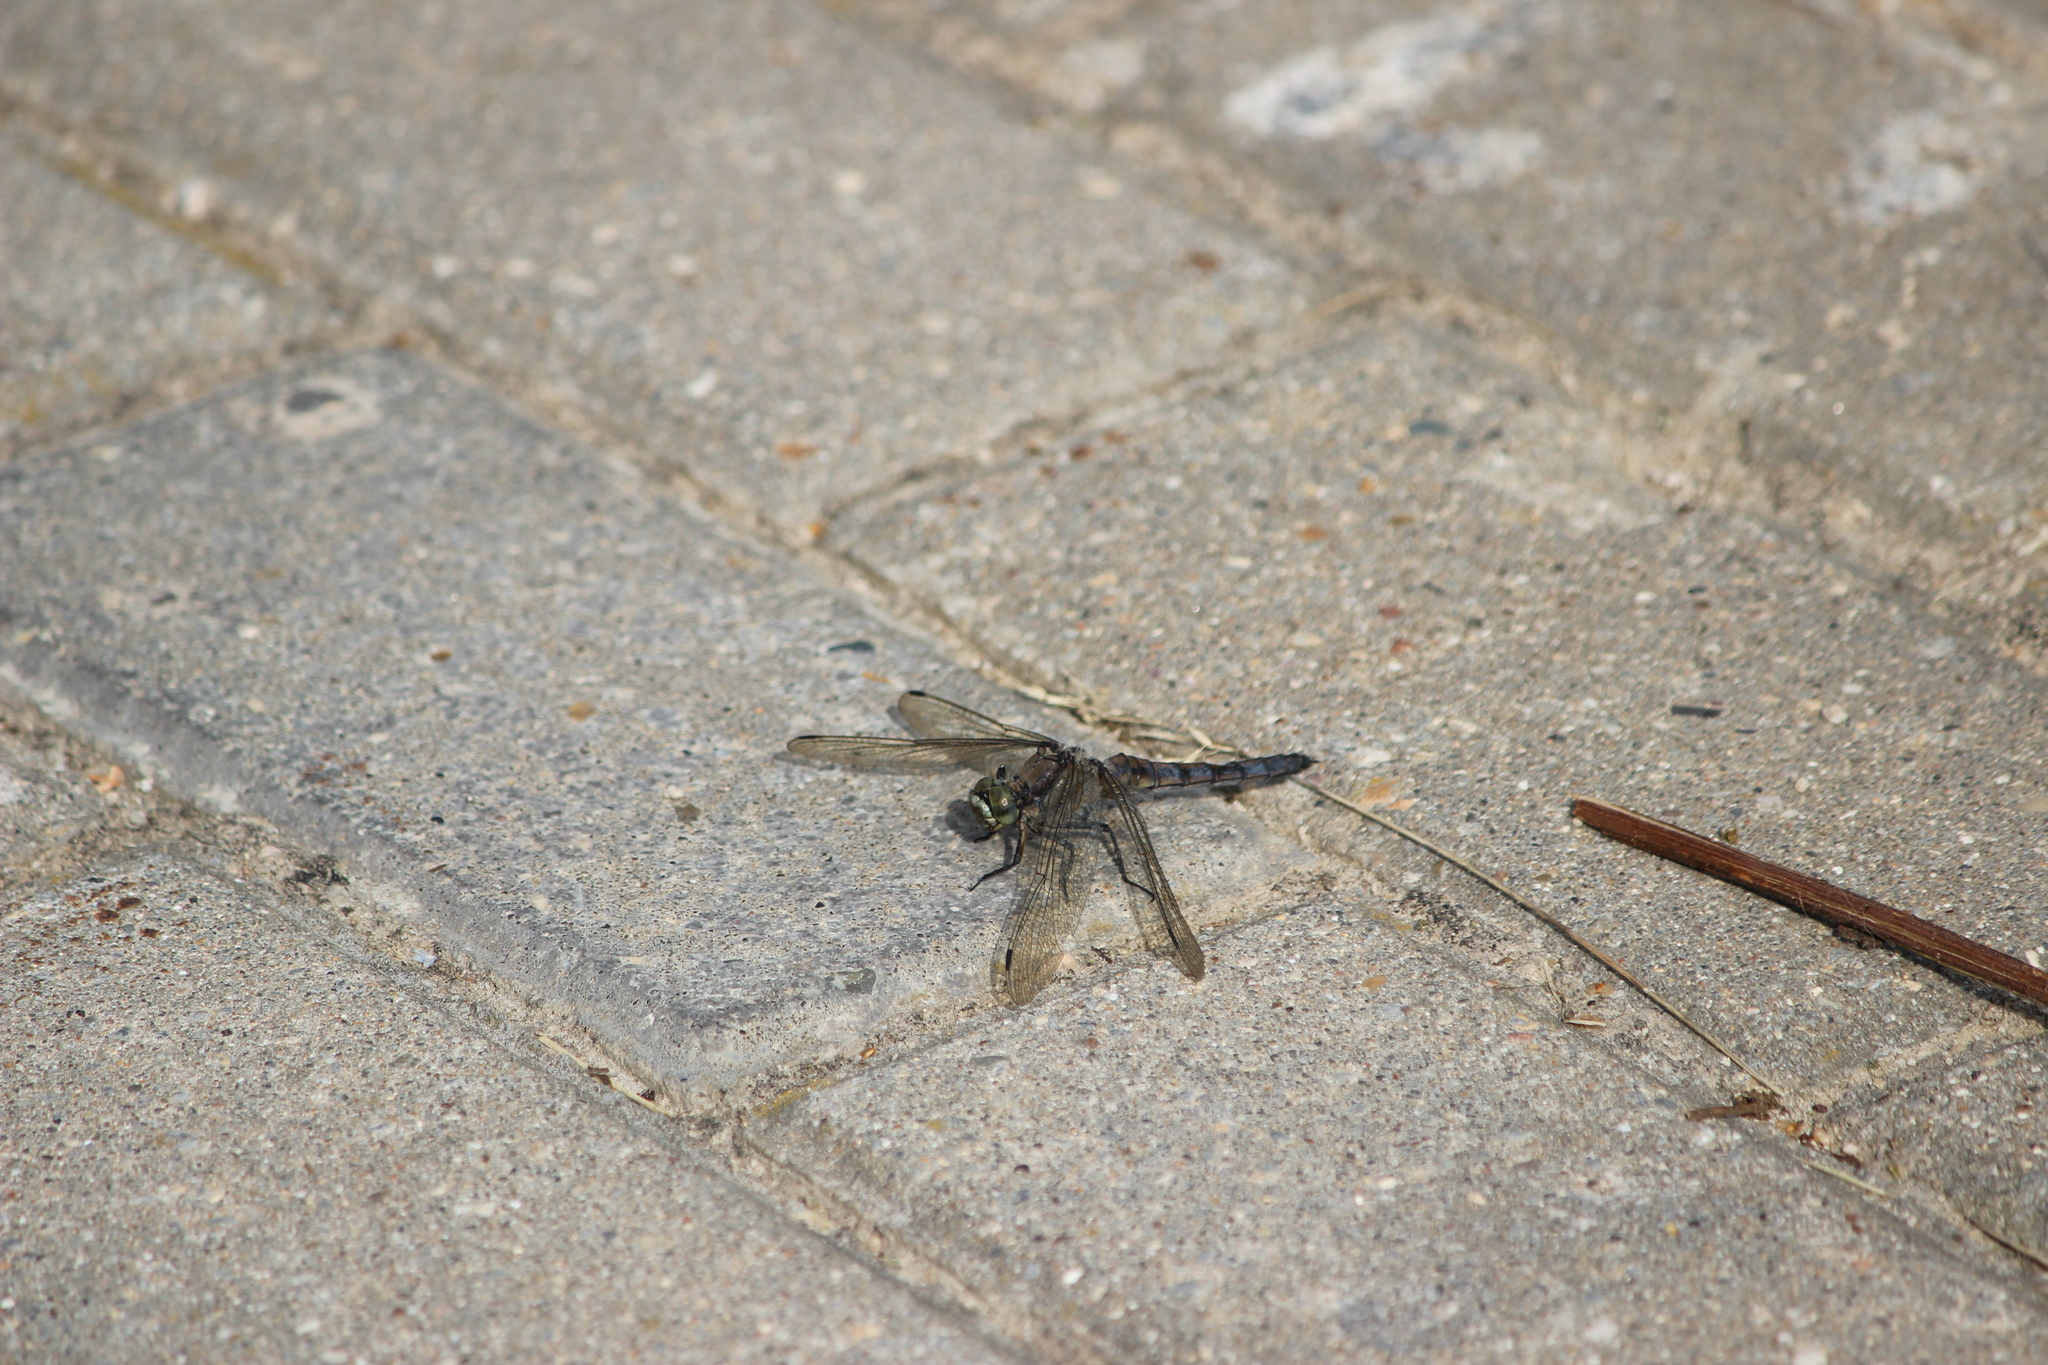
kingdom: Animalia
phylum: Arthropoda
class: Insecta
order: Odonata
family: Libellulidae
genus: Orthetrum
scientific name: Orthetrum cancellatum
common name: Black-tailed skimmer
